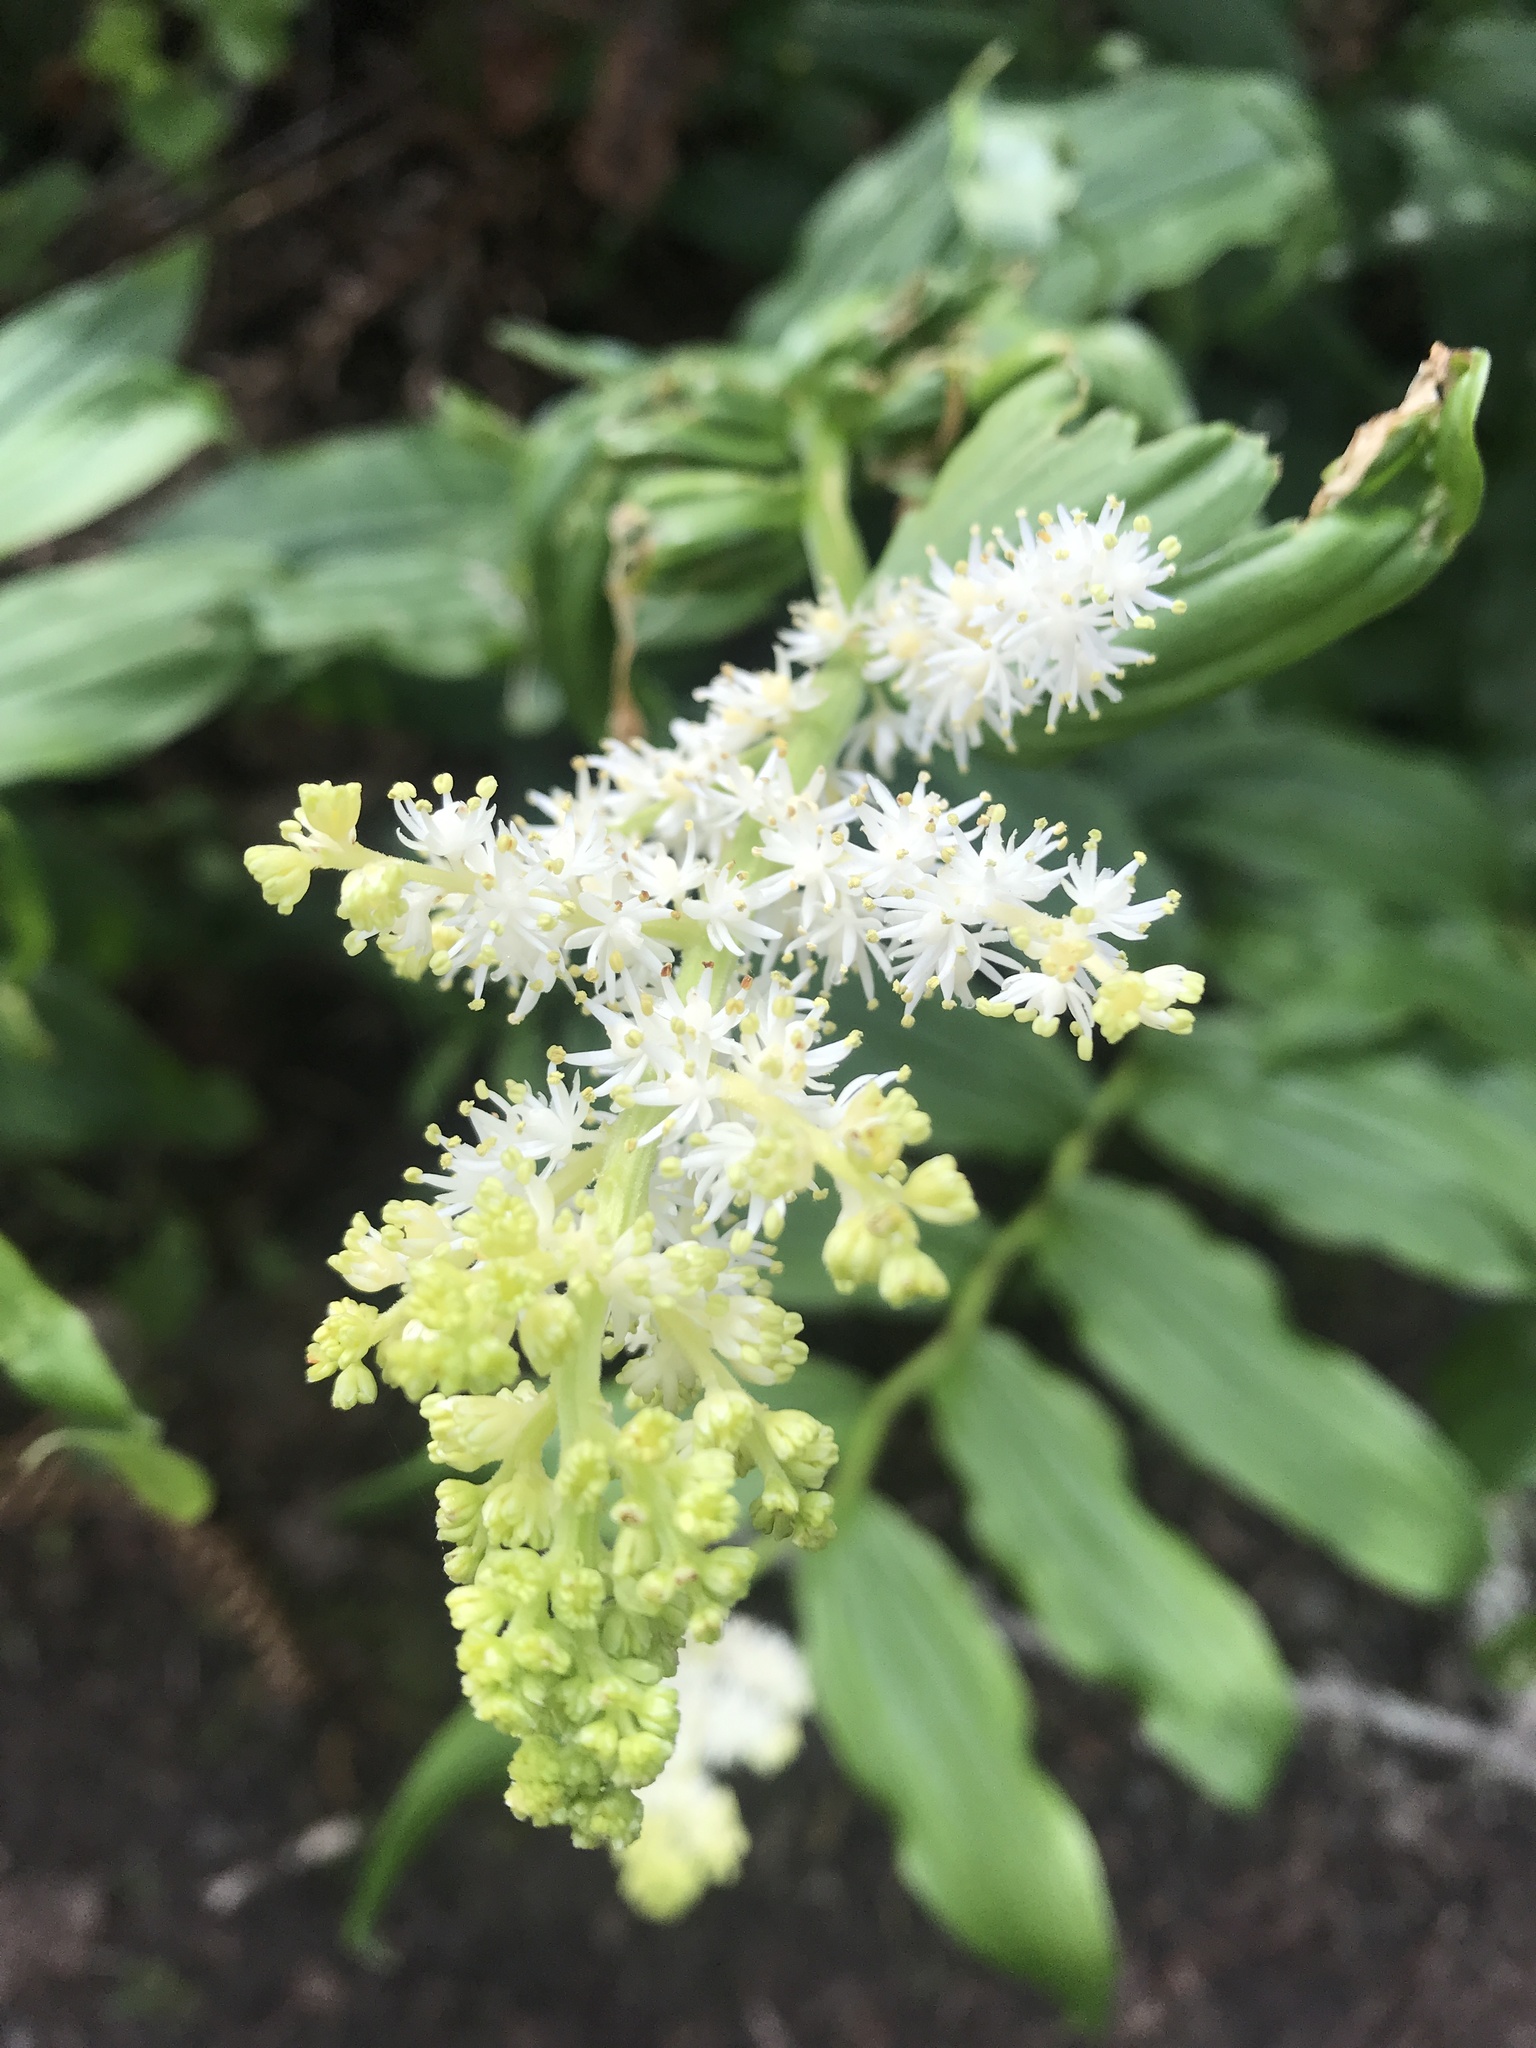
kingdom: Plantae
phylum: Tracheophyta
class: Liliopsida
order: Asparagales
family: Asparagaceae
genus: Maianthemum
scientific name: Maianthemum racemosum
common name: False spikenard
